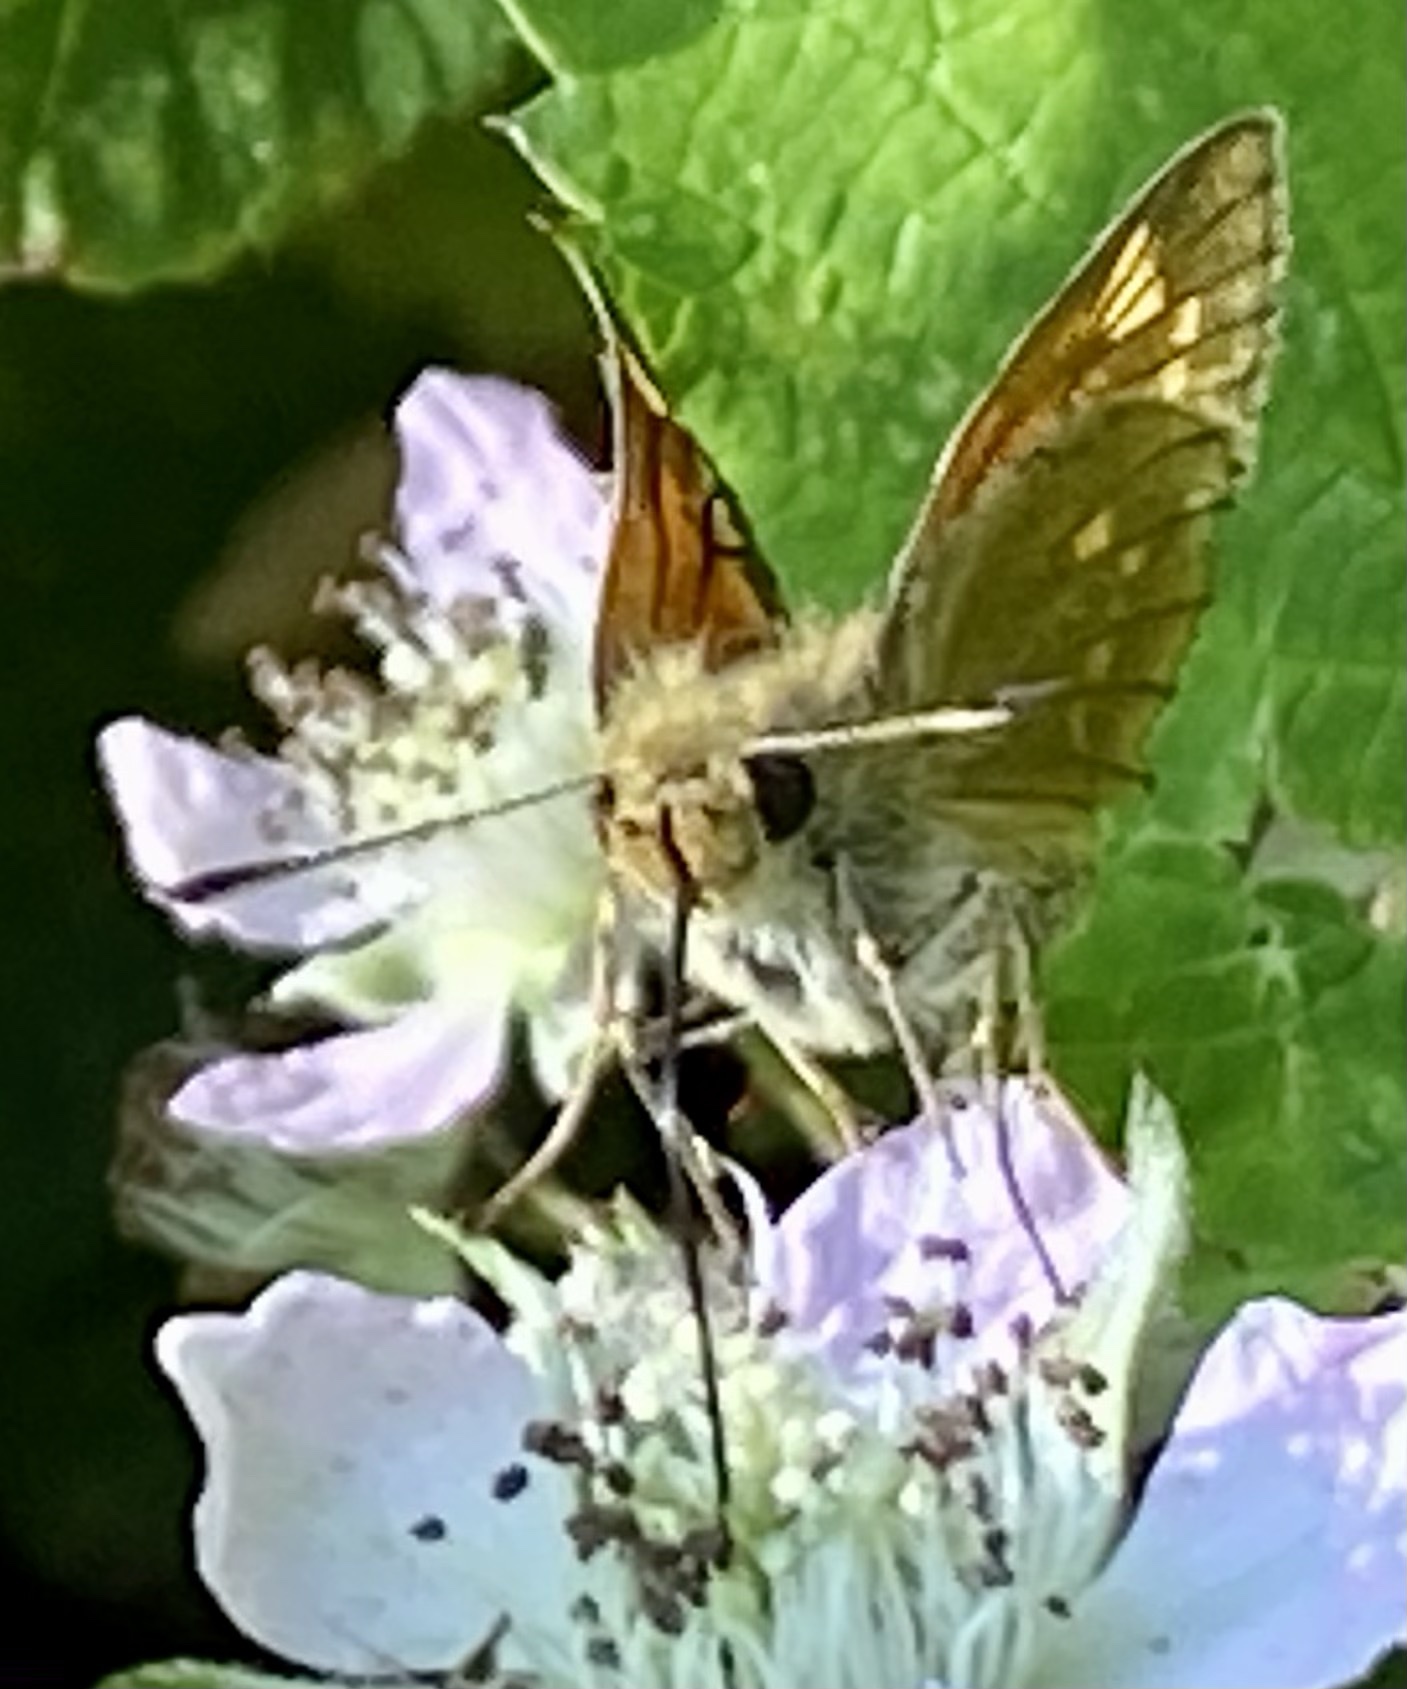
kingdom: Animalia
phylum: Arthropoda
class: Insecta
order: Lepidoptera
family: Hesperiidae
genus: Ochlodes
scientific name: Ochlodes venata
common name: Large skipper
